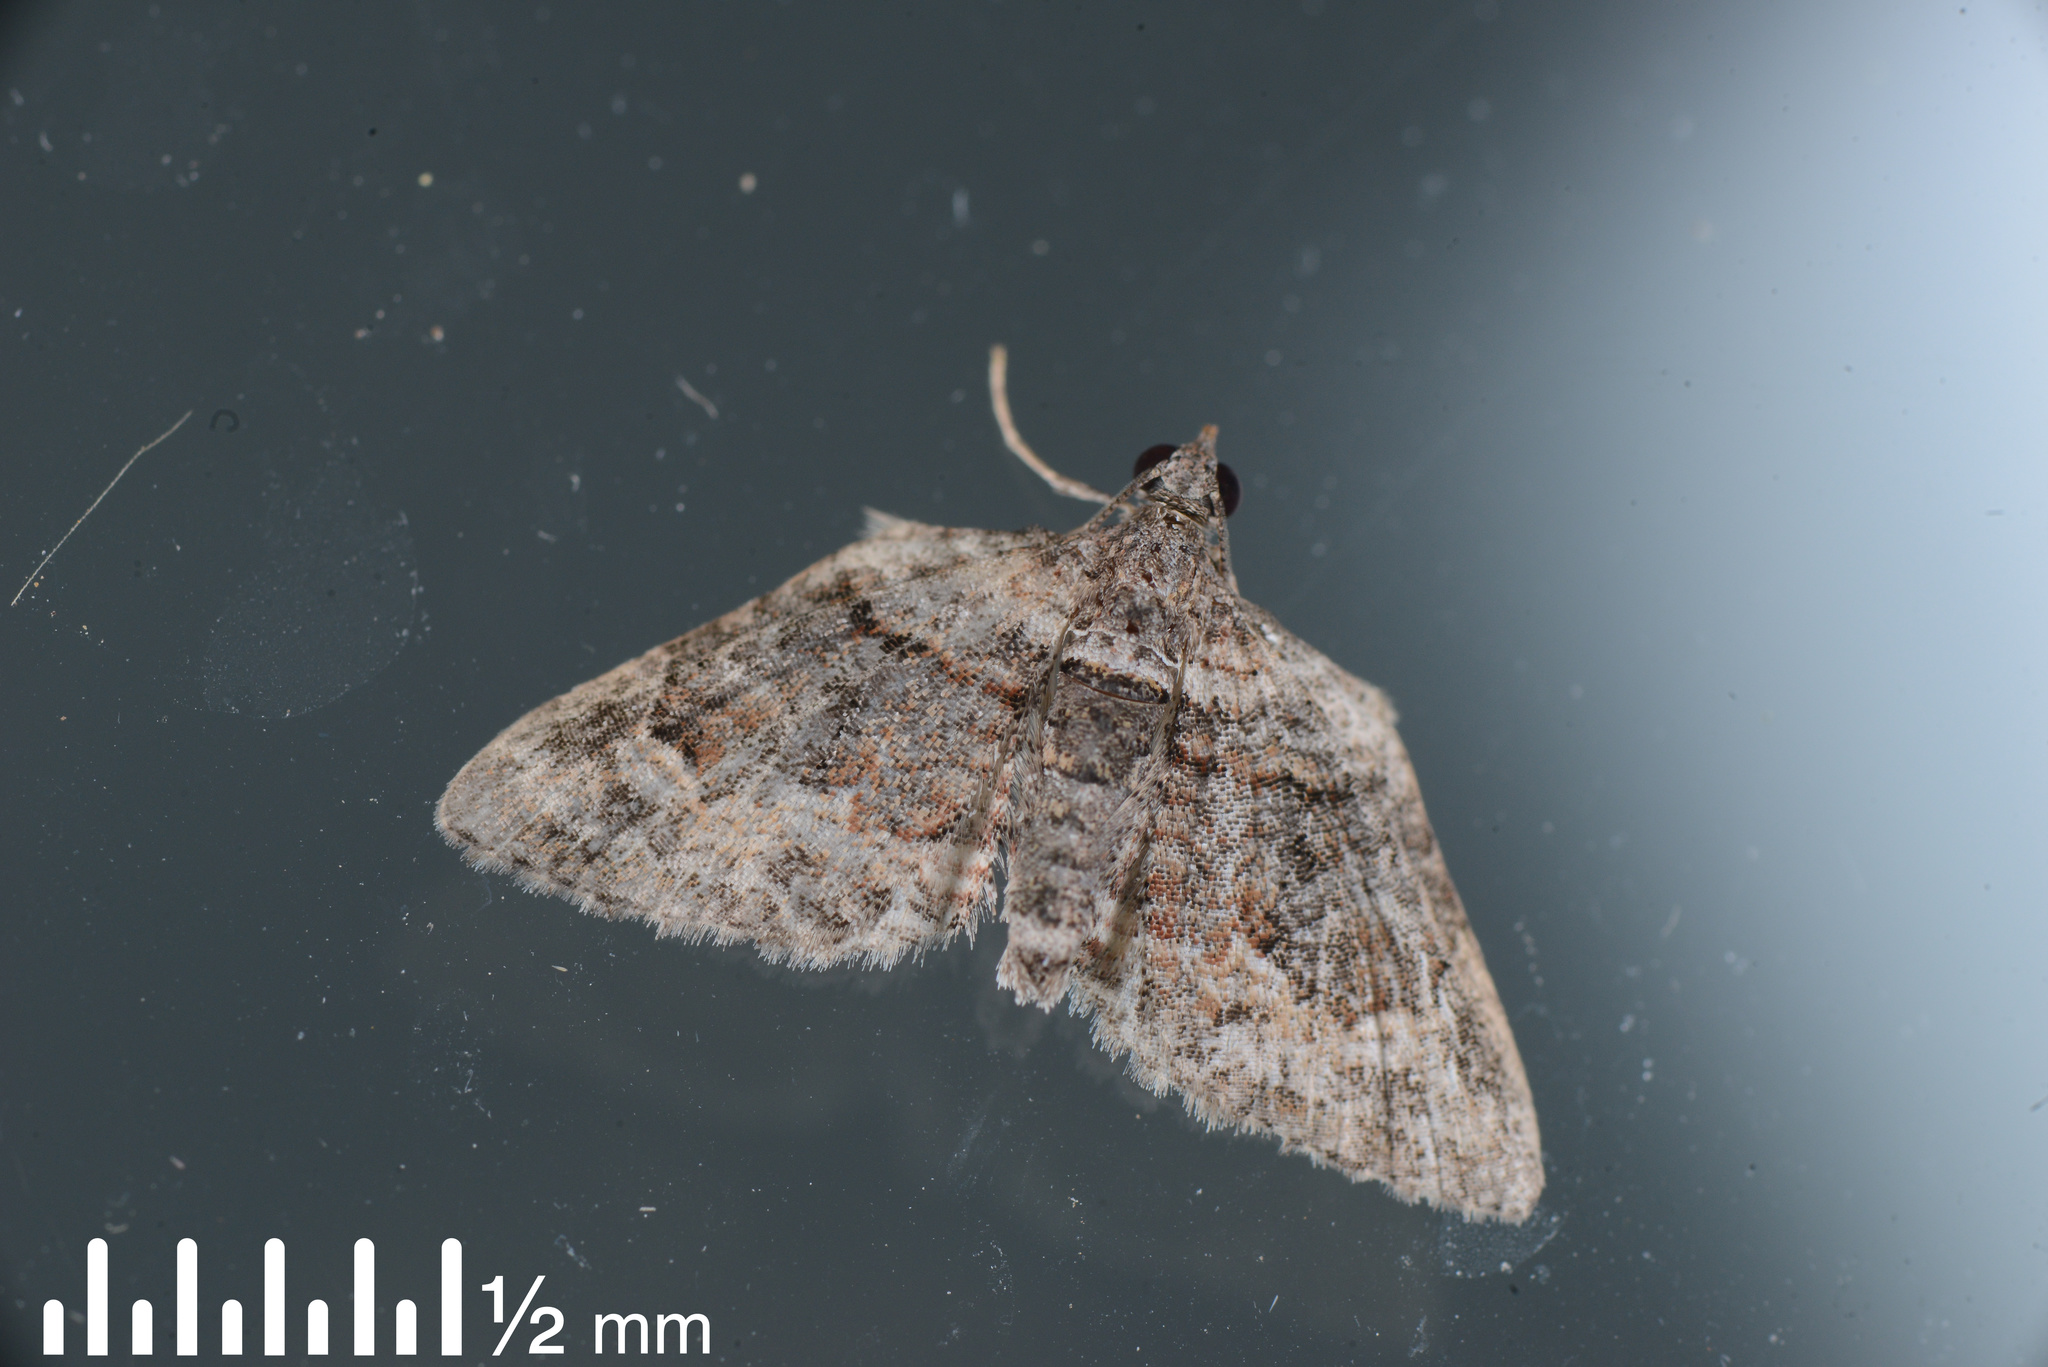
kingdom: Animalia
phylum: Arthropoda
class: Insecta
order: Lepidoptera
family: Geometridae
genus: Phrissogonus
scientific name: Phrissogonus laticostata
